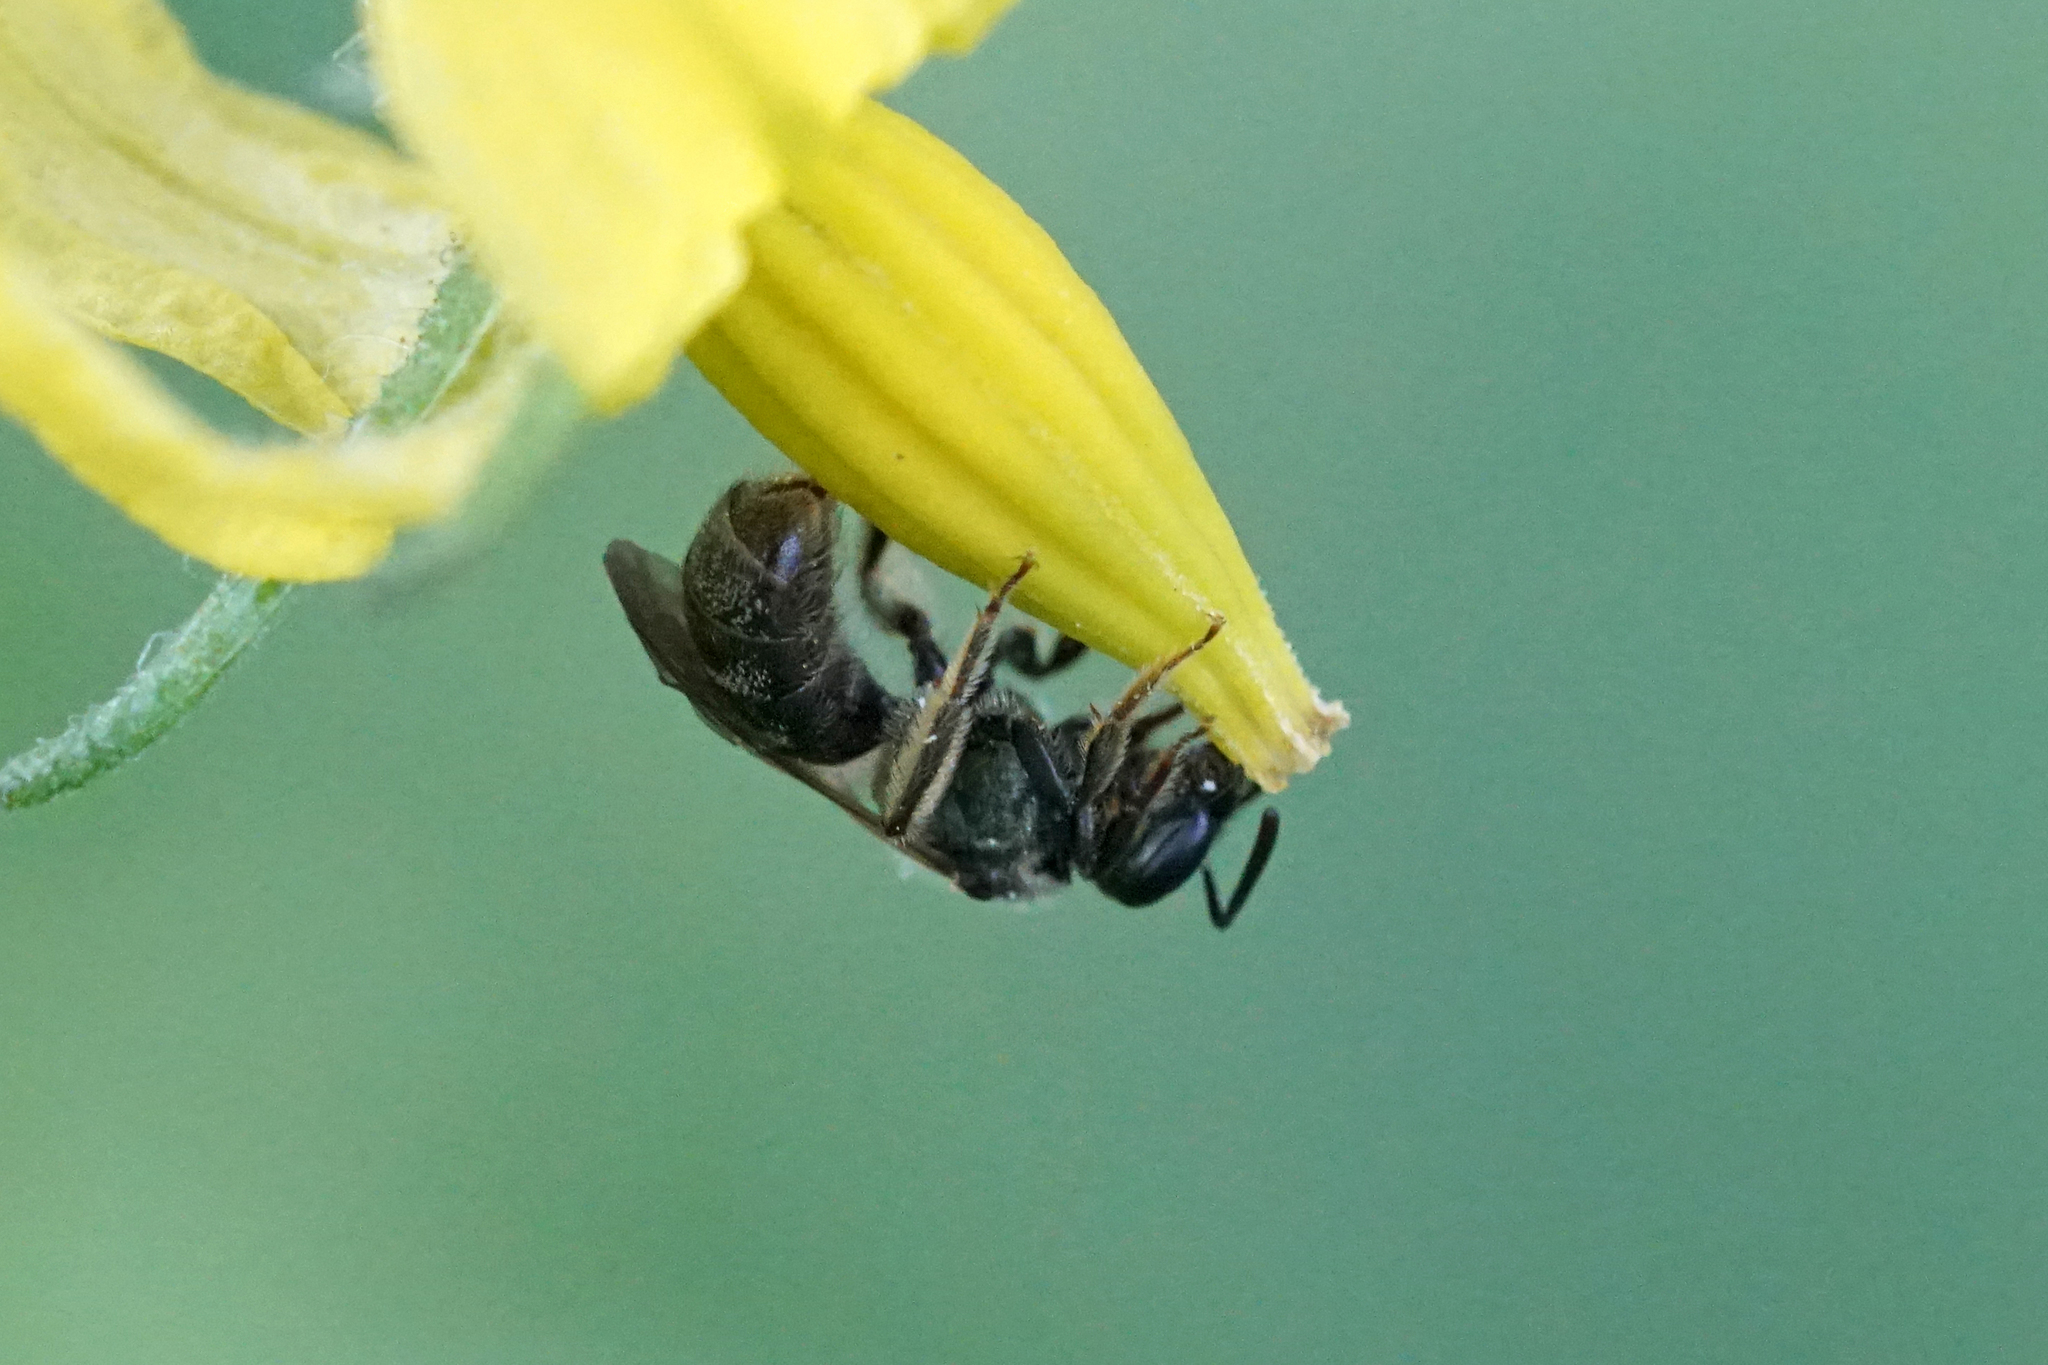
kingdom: Animalia
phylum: Arthropoda
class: Insecta
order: Hymenoptera
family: Halictidae
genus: Dialictus
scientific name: Dialictus
